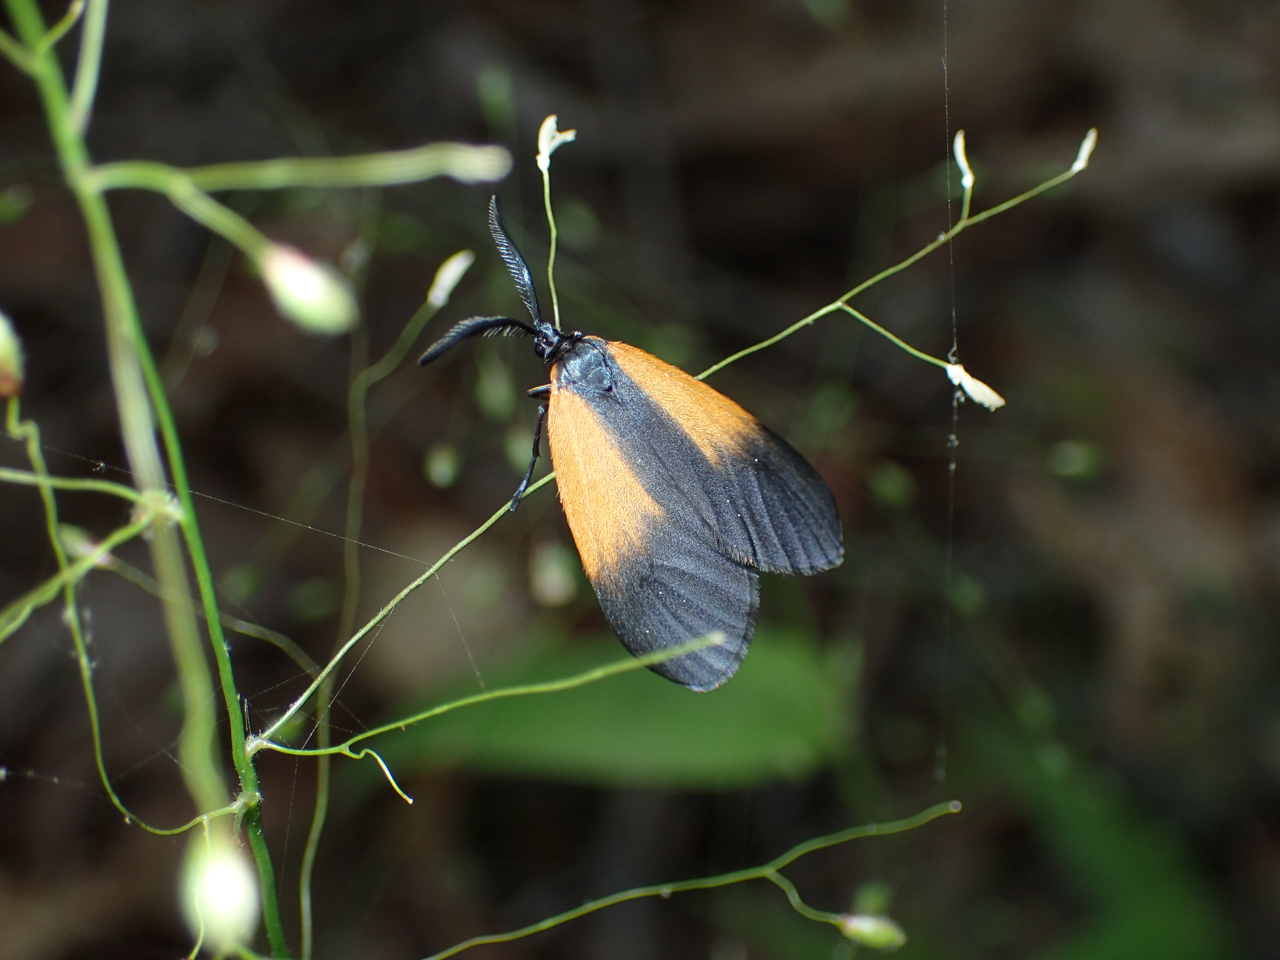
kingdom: Animalia
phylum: Arthropoda
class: Insecta
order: Lepidoptera
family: Zygaenidae
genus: Malthaca
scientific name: Malthaca dimidiata
